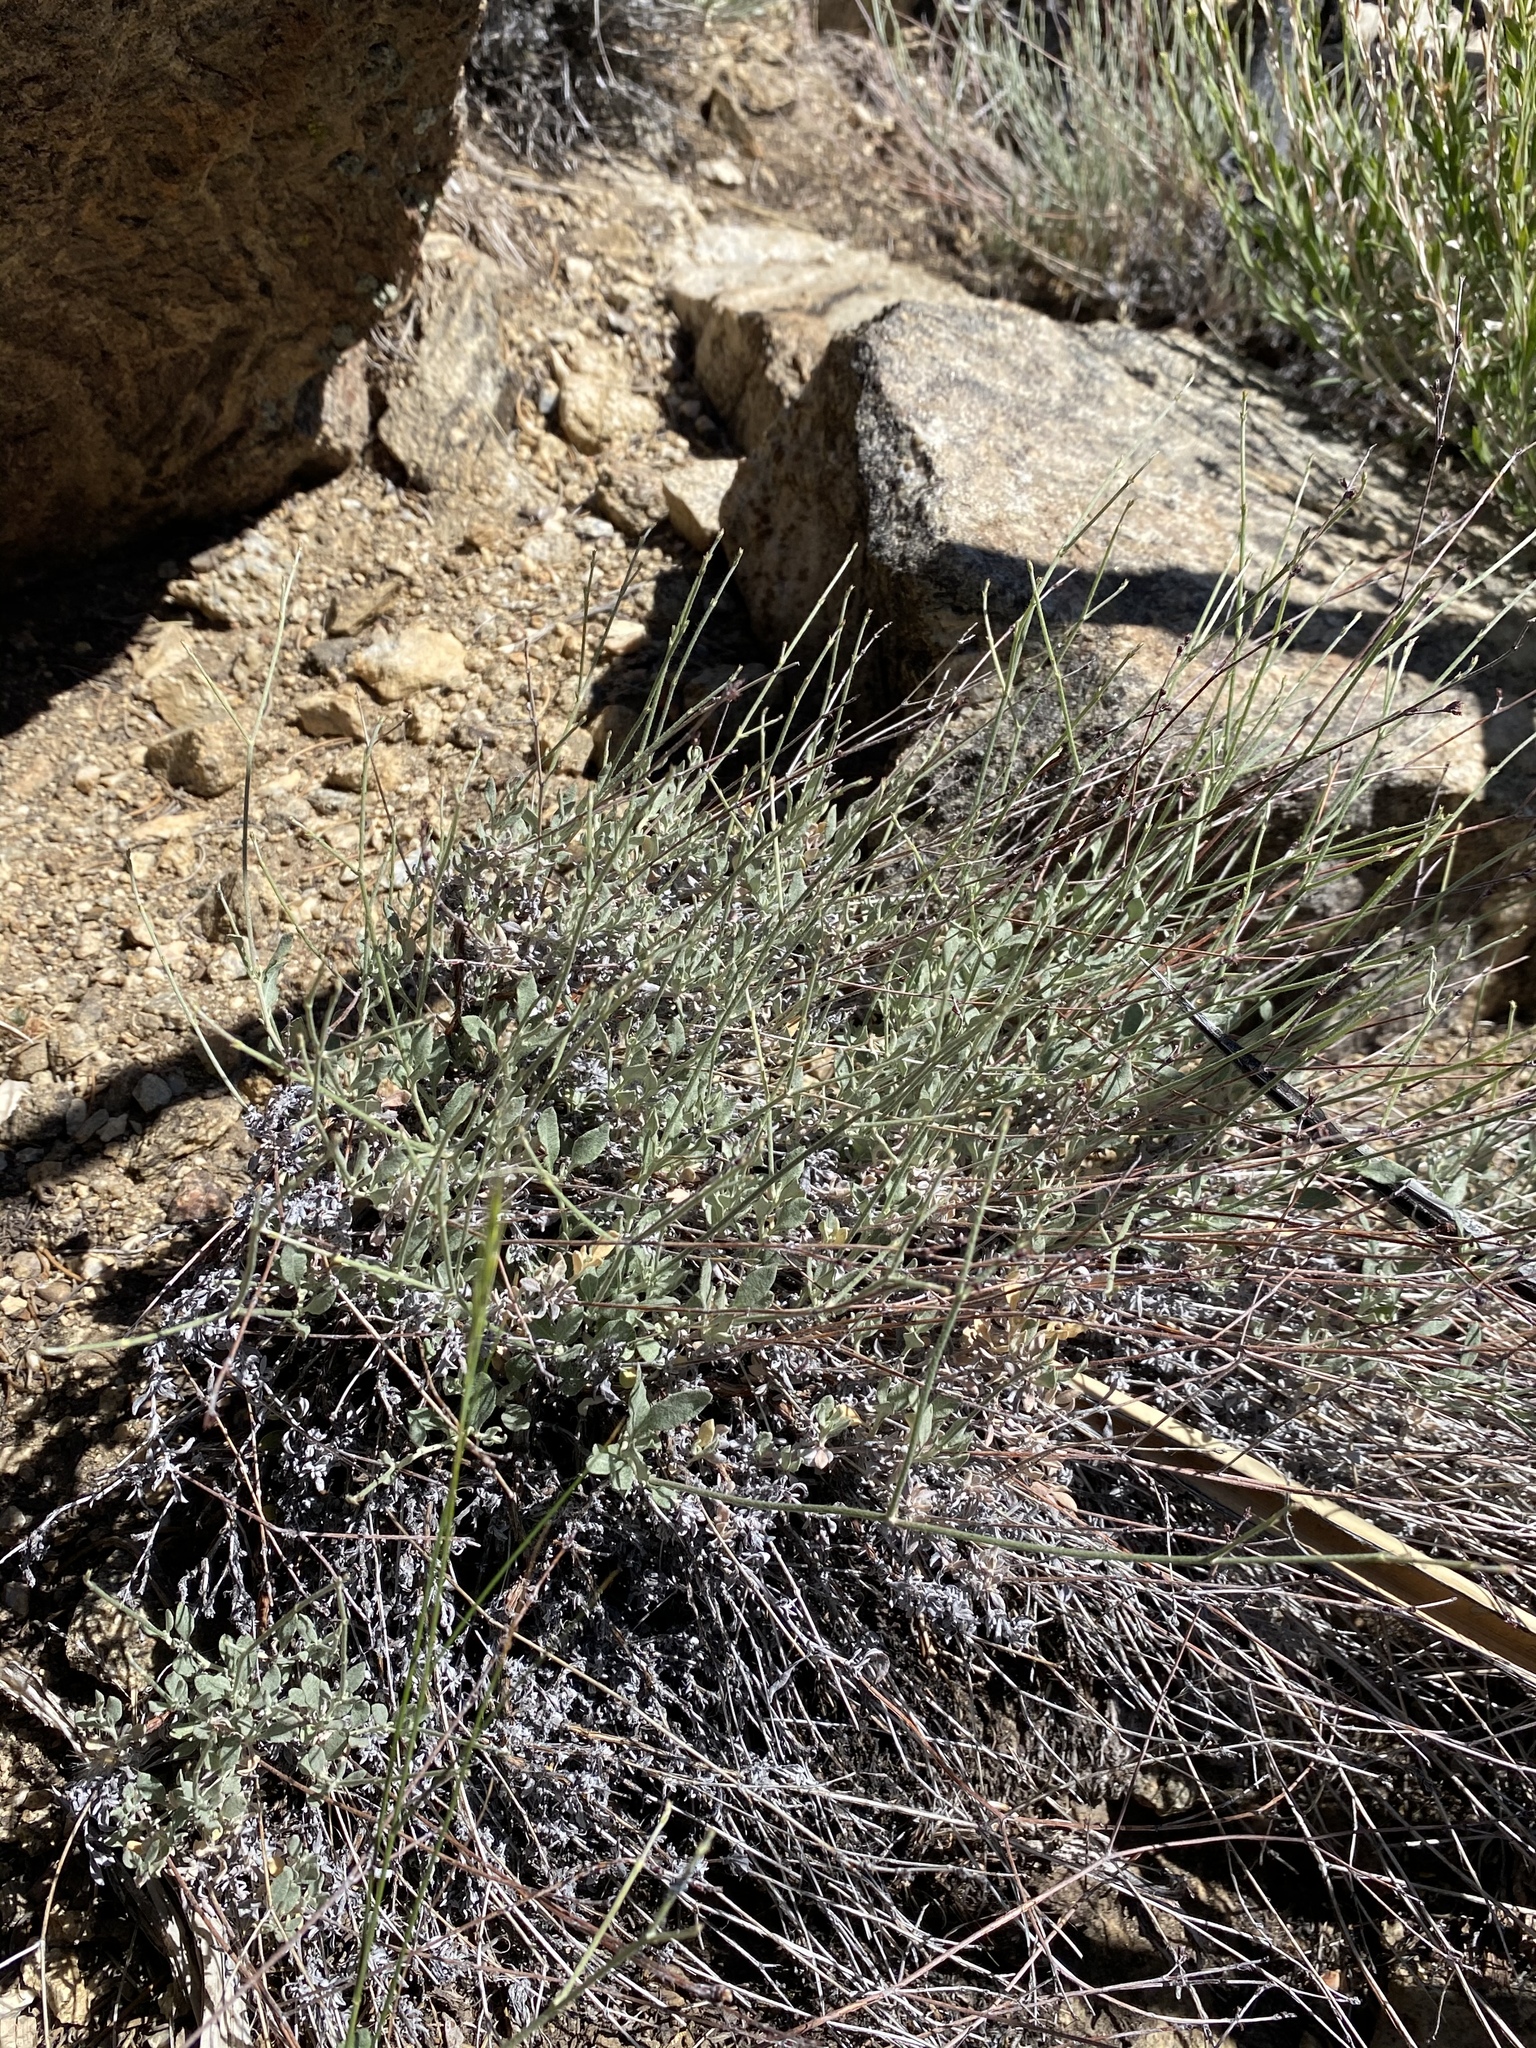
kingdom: Plantae
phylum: Tracheophyta
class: Magnoliopsida
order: Caryophyllales
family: Polygonaceae
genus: Eriogonum
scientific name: Eriogonum wrightii
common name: Bastard-sage
